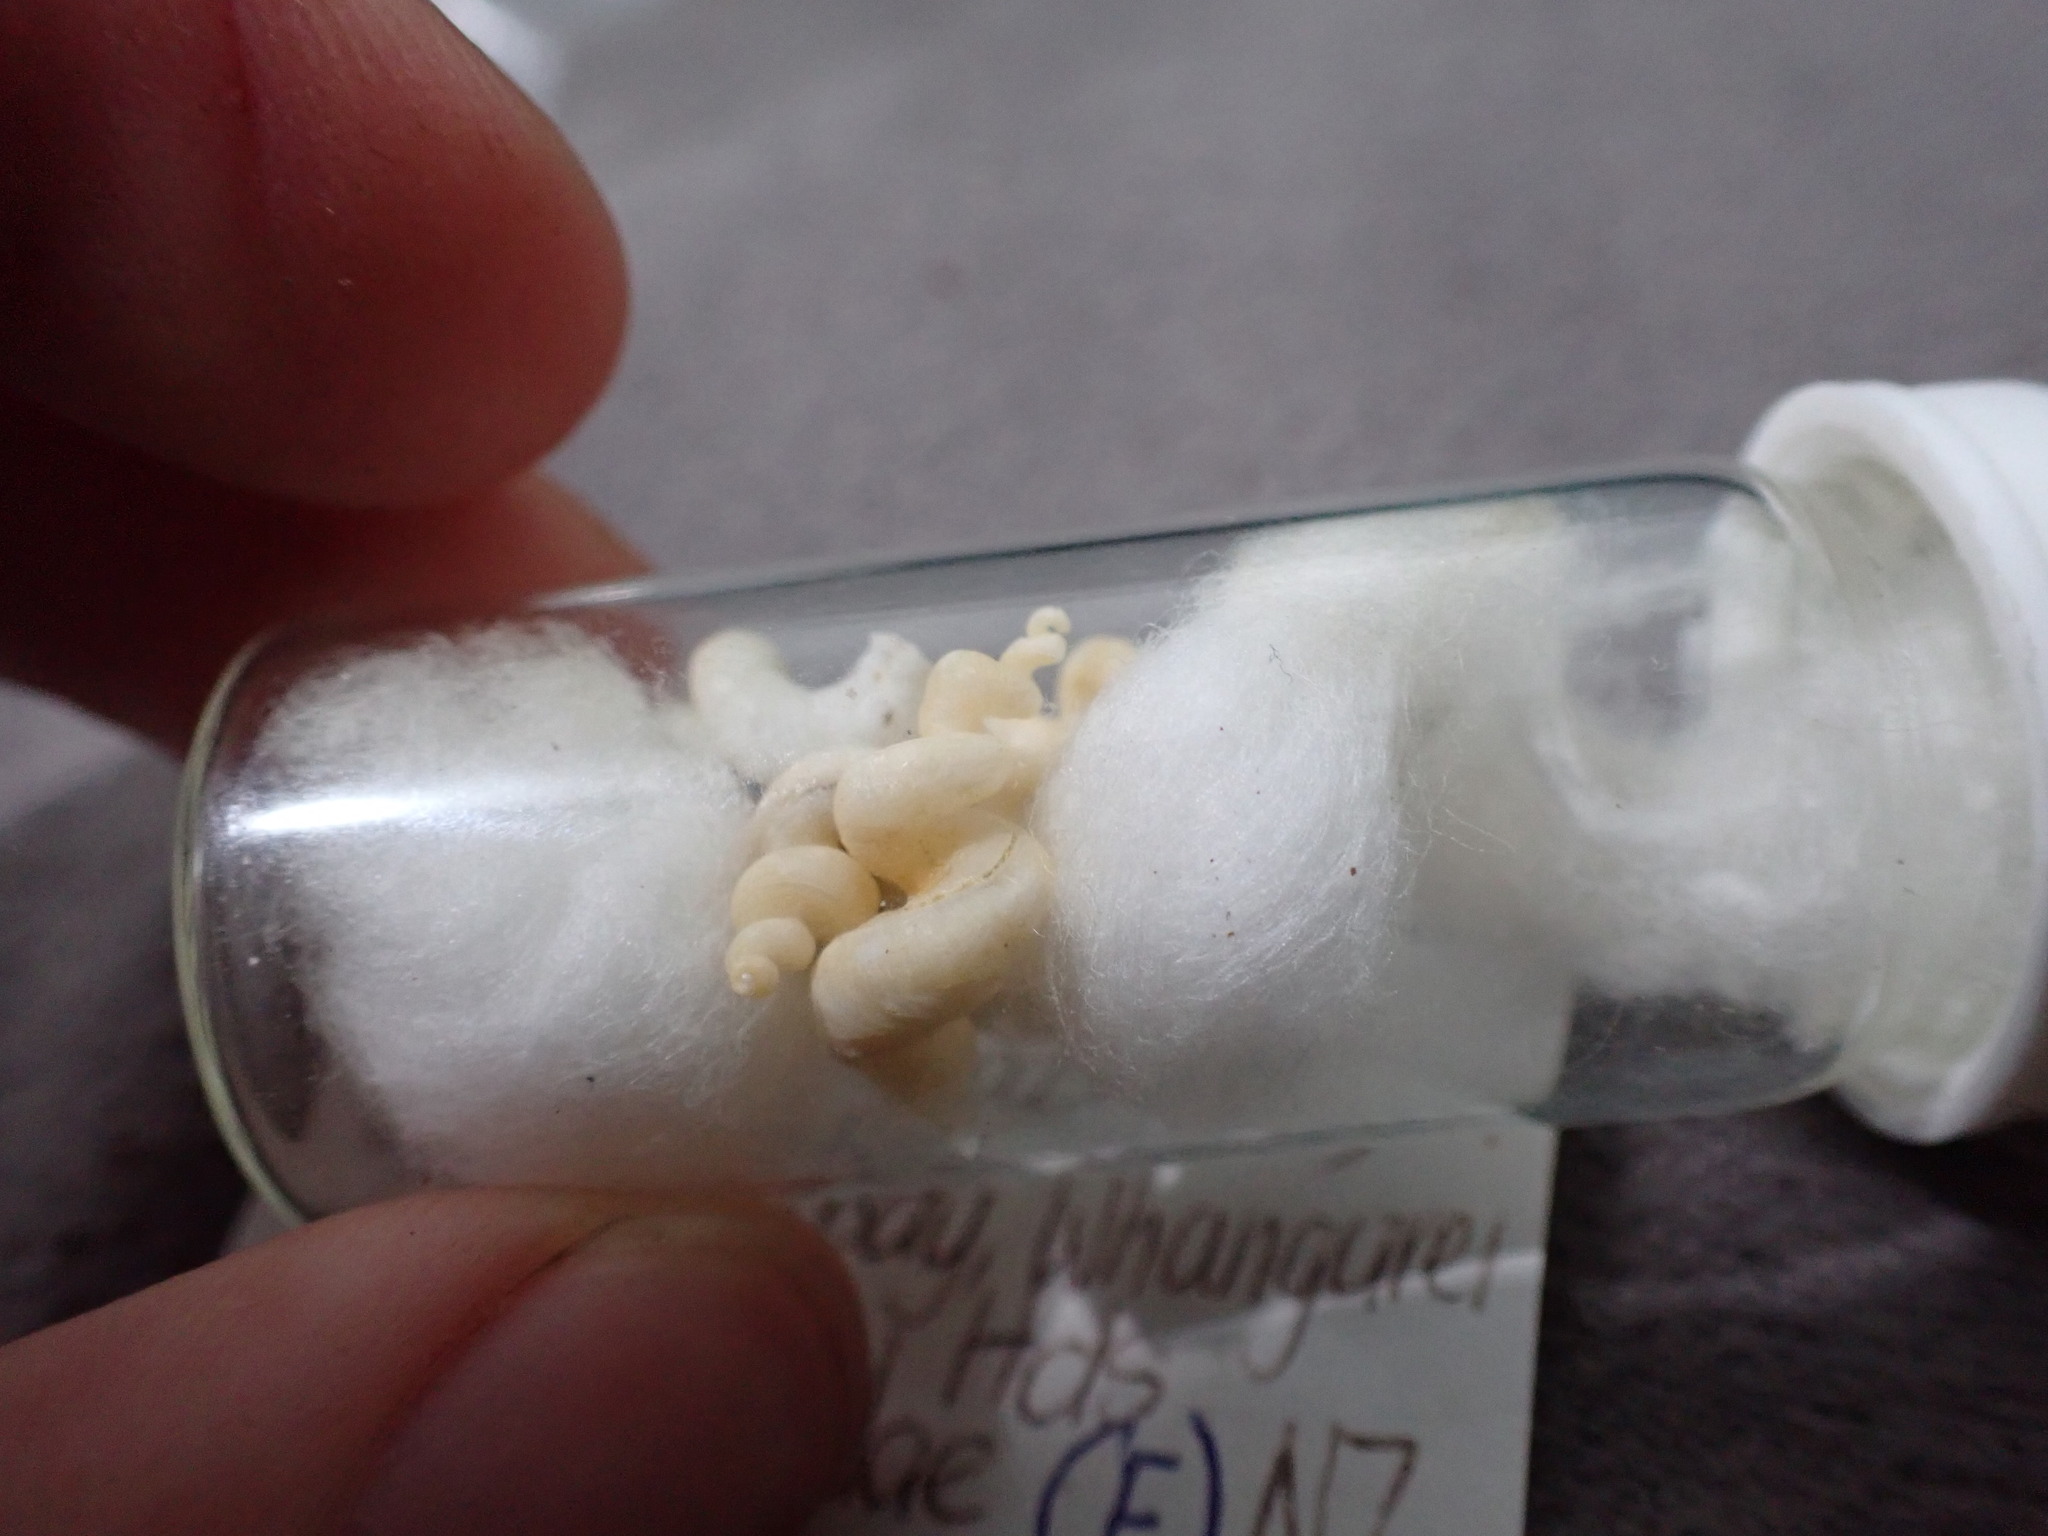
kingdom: Animalia
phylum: Mollusca
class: Gastropoda
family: Siliquariidae
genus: Tenagodus
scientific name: Tenagodus weldii
